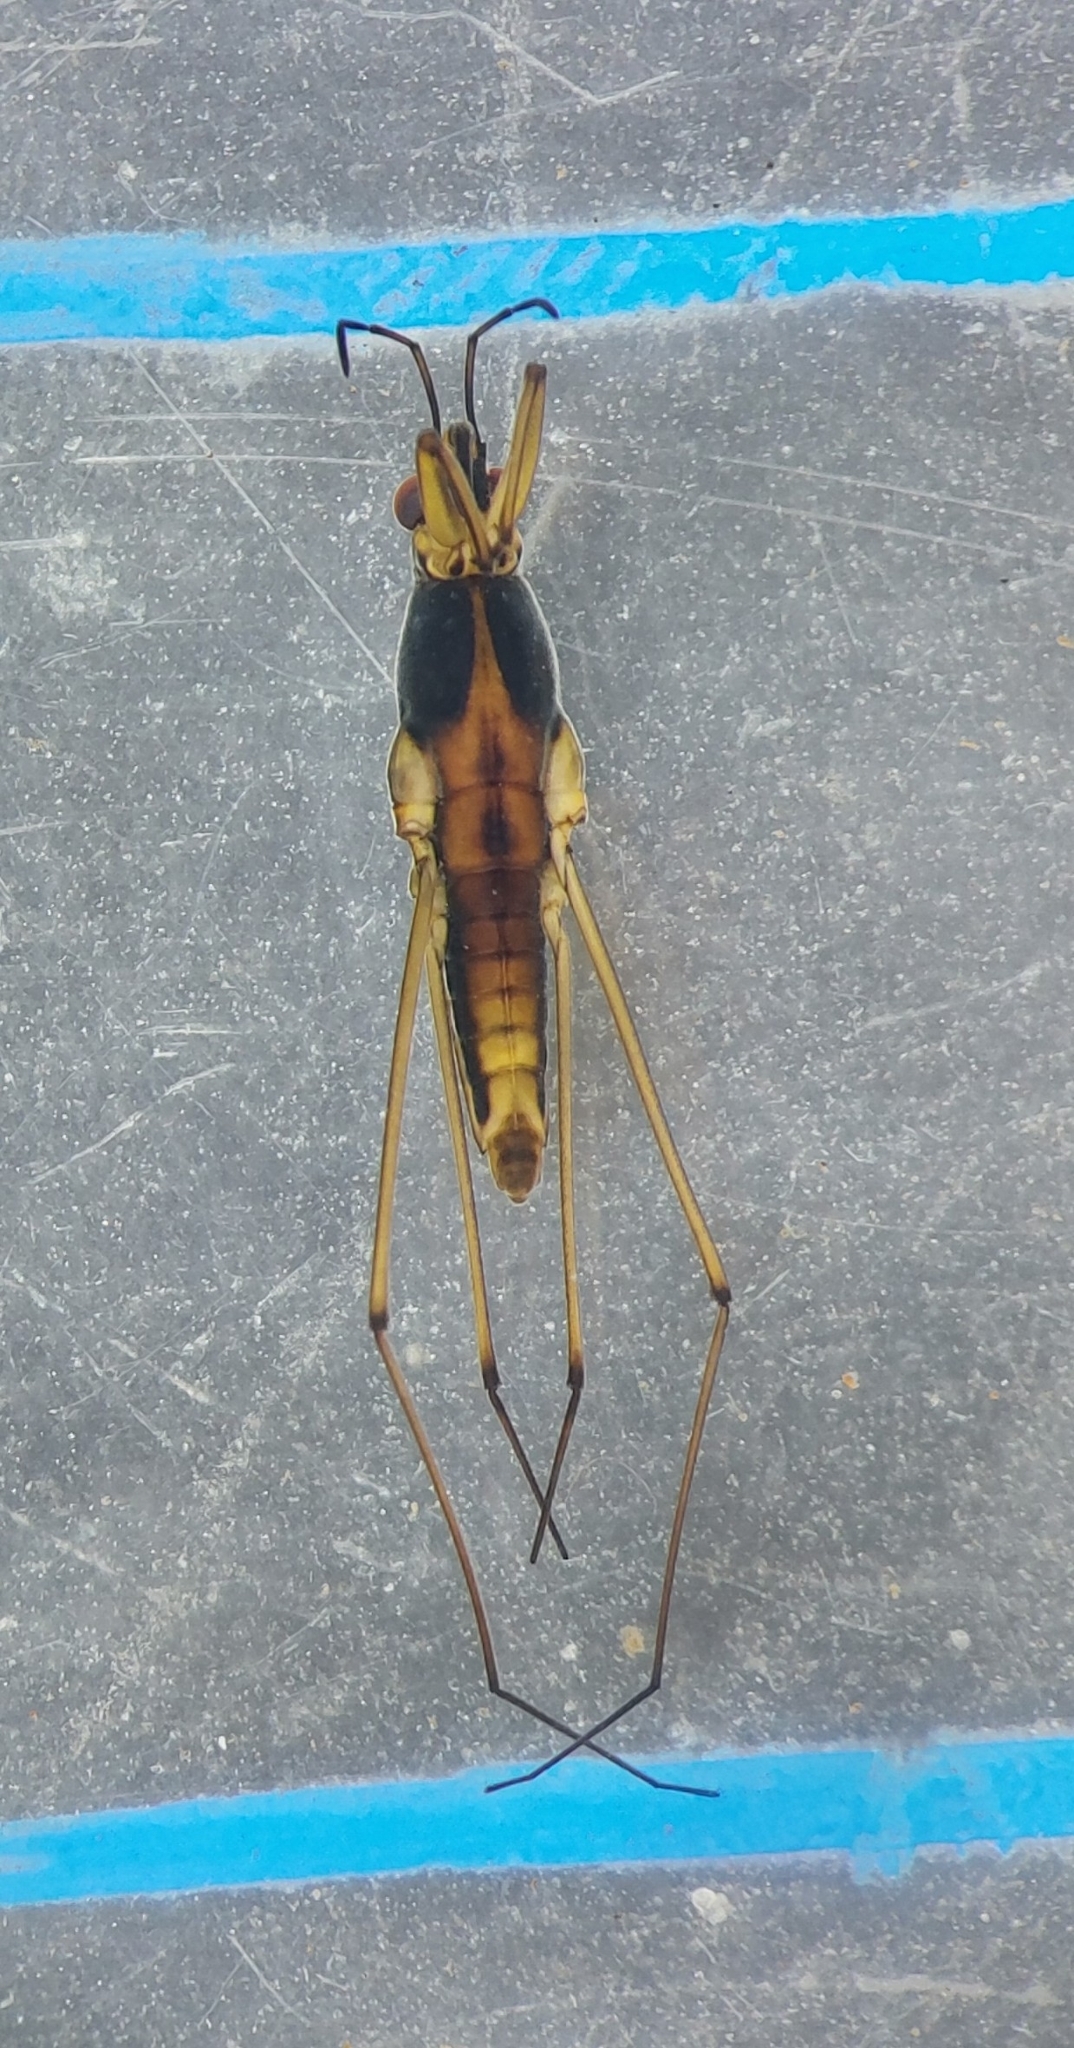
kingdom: Animalia
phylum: Arthropoda
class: Insecta
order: Hemiptera
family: Gerridae
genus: Gerris
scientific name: Gerris lacustris
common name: Common pondskater
